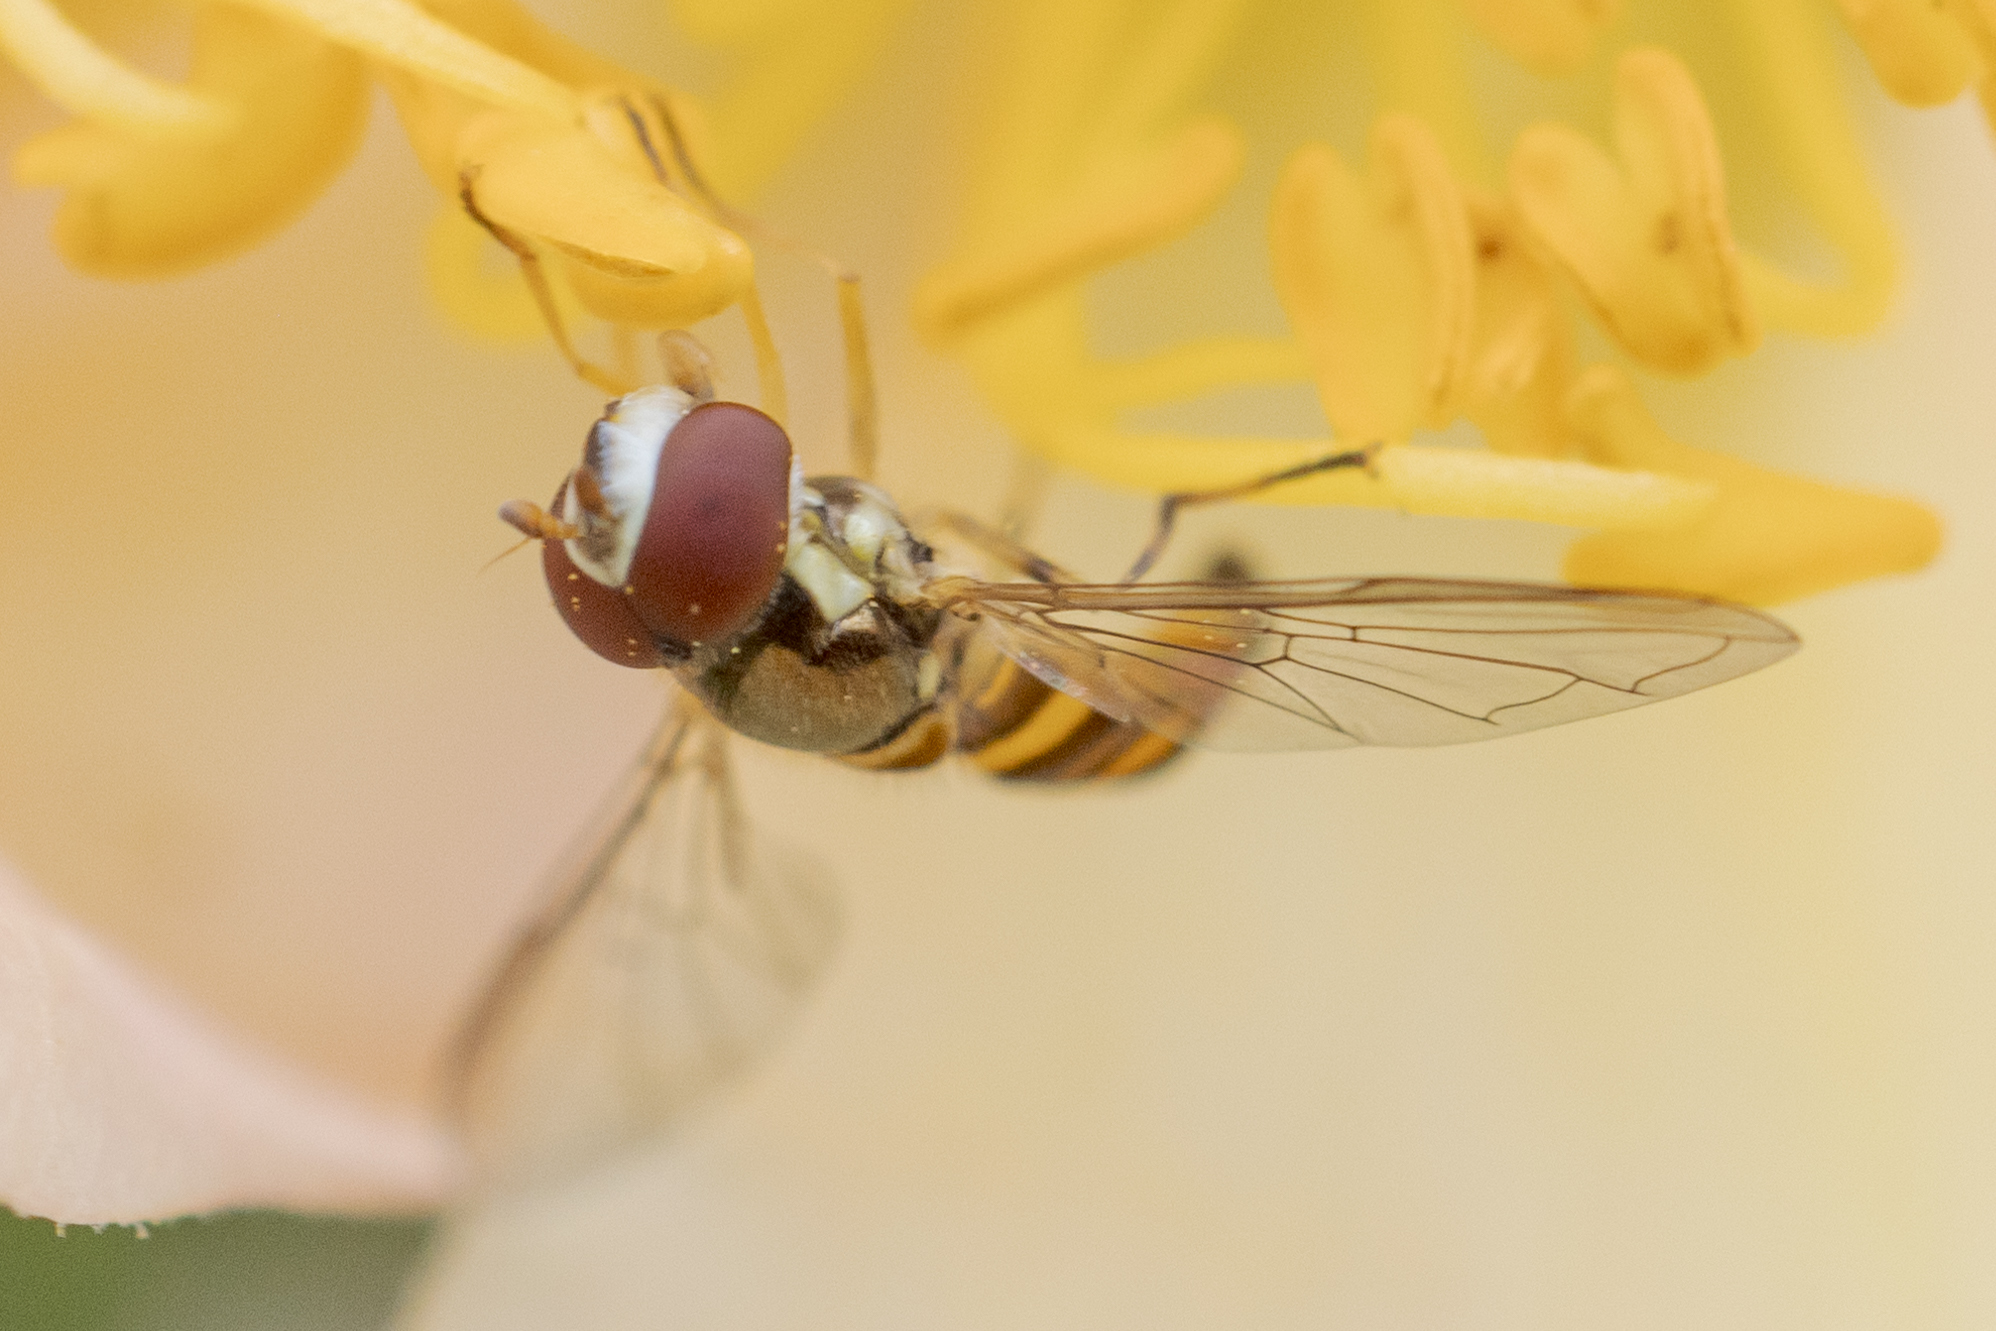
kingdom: Animalia
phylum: Arthropoda
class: Insecta
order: Diptera
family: Syrphidae
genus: Allograpta
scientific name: Allograpta obliqua
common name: Common oblique syrphid
